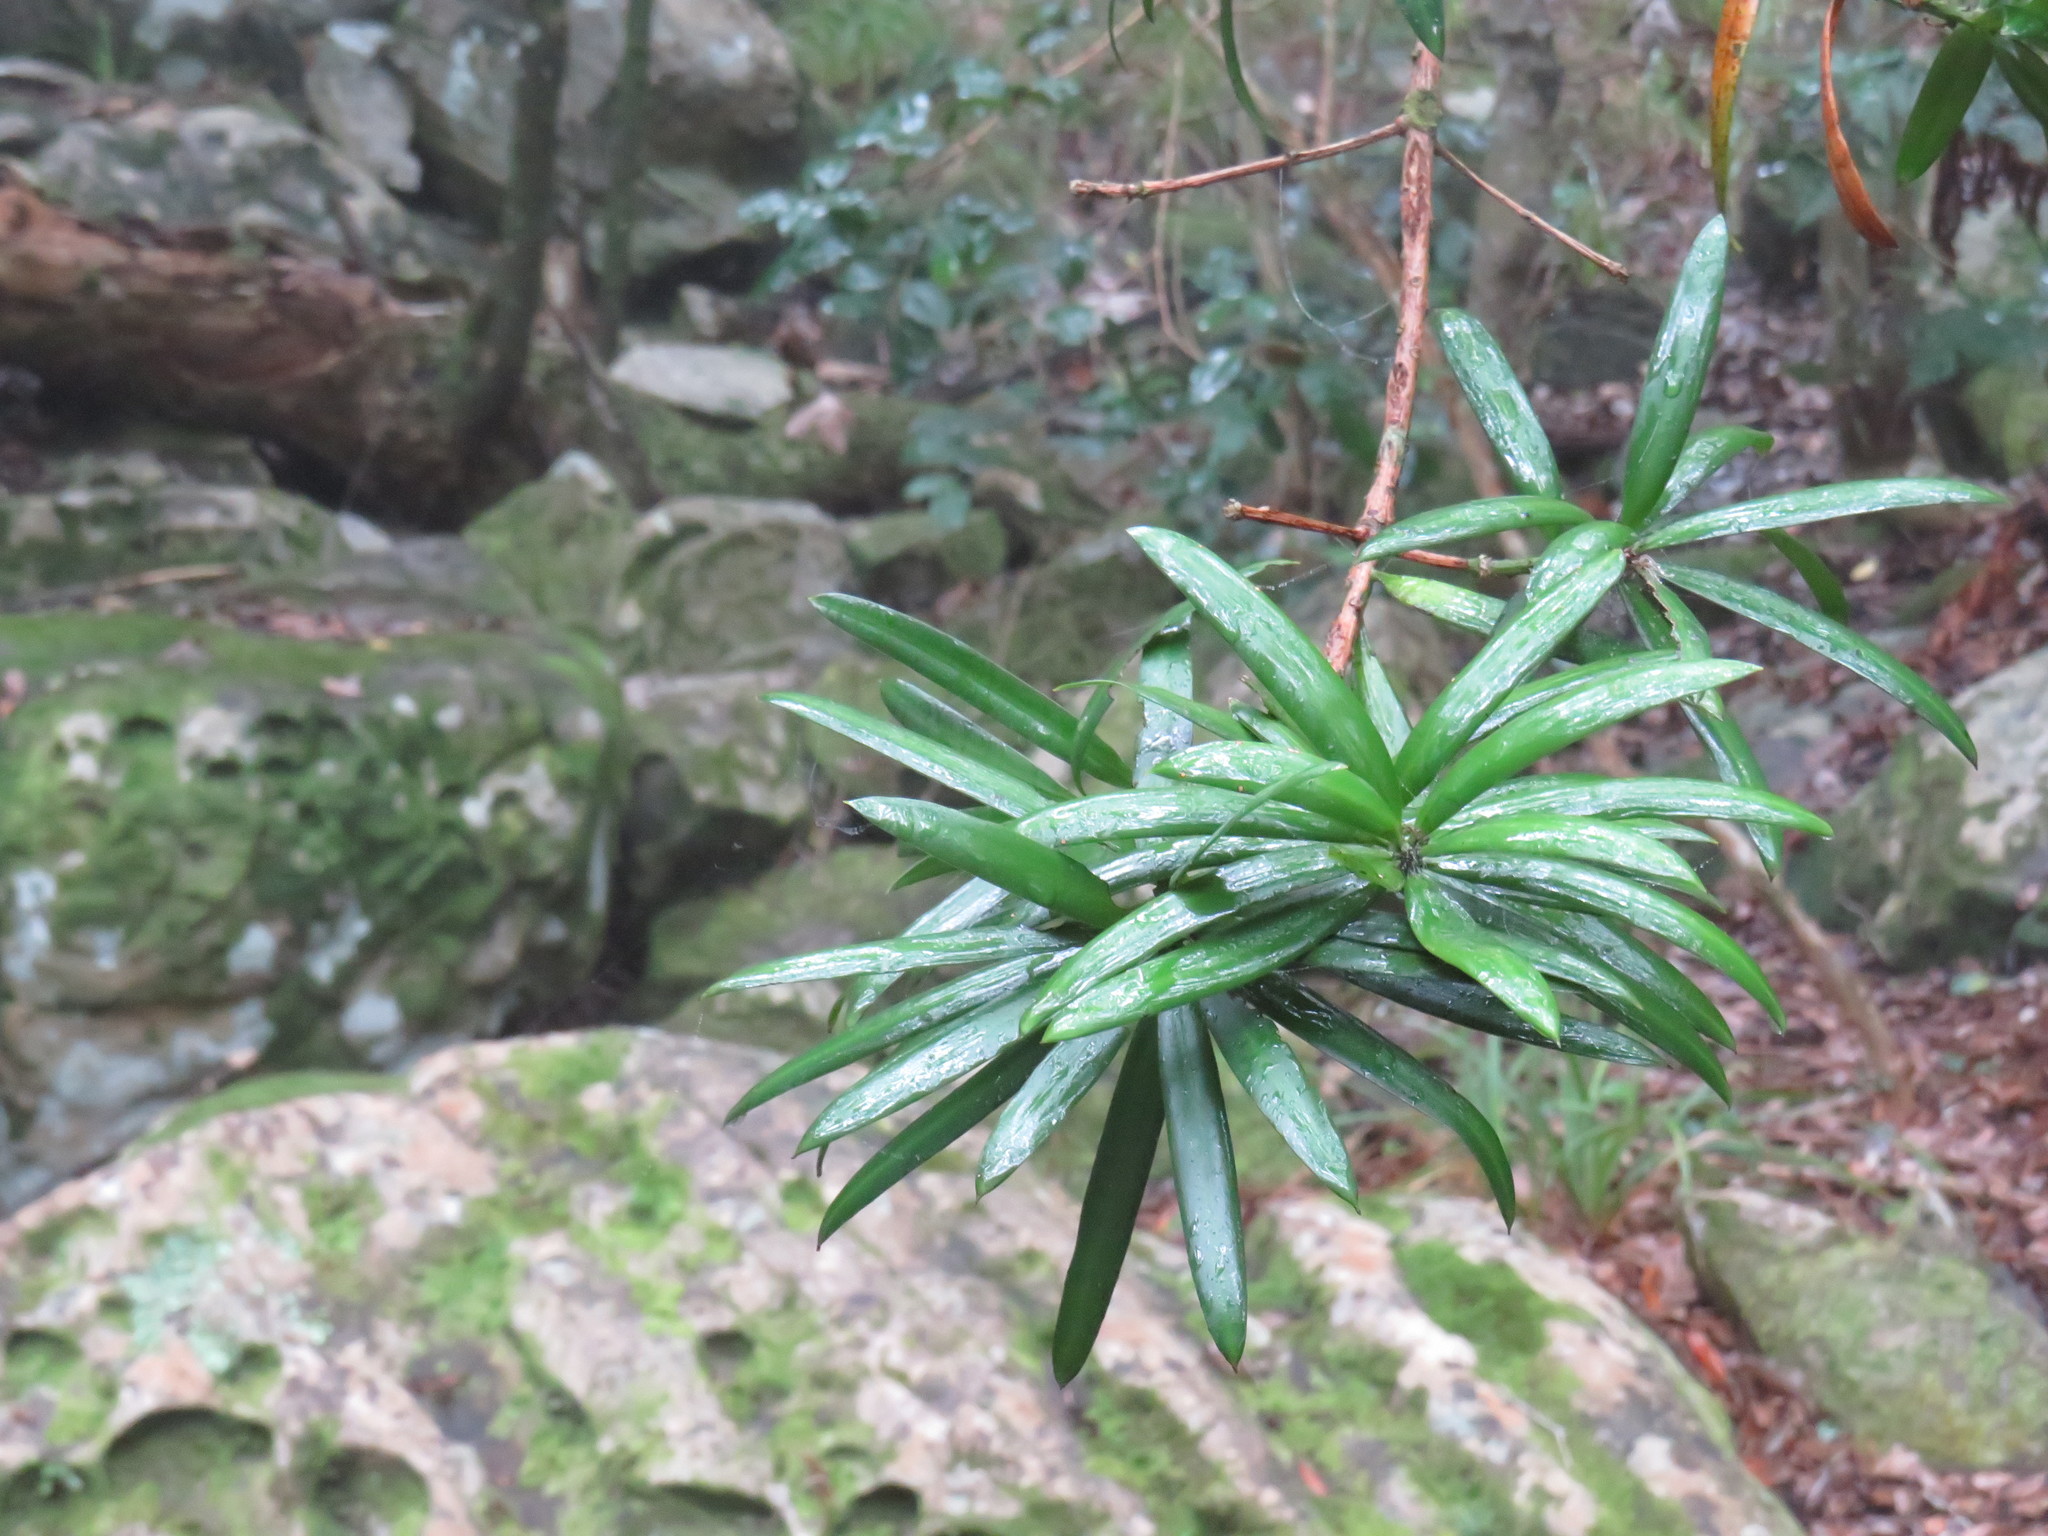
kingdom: Plantae
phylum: Tracheophyta
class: Pinopsida
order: Pinales
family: Podocarpaceae
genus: Podocarpus
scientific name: Podocarpus latifolius
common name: True yellowwood
